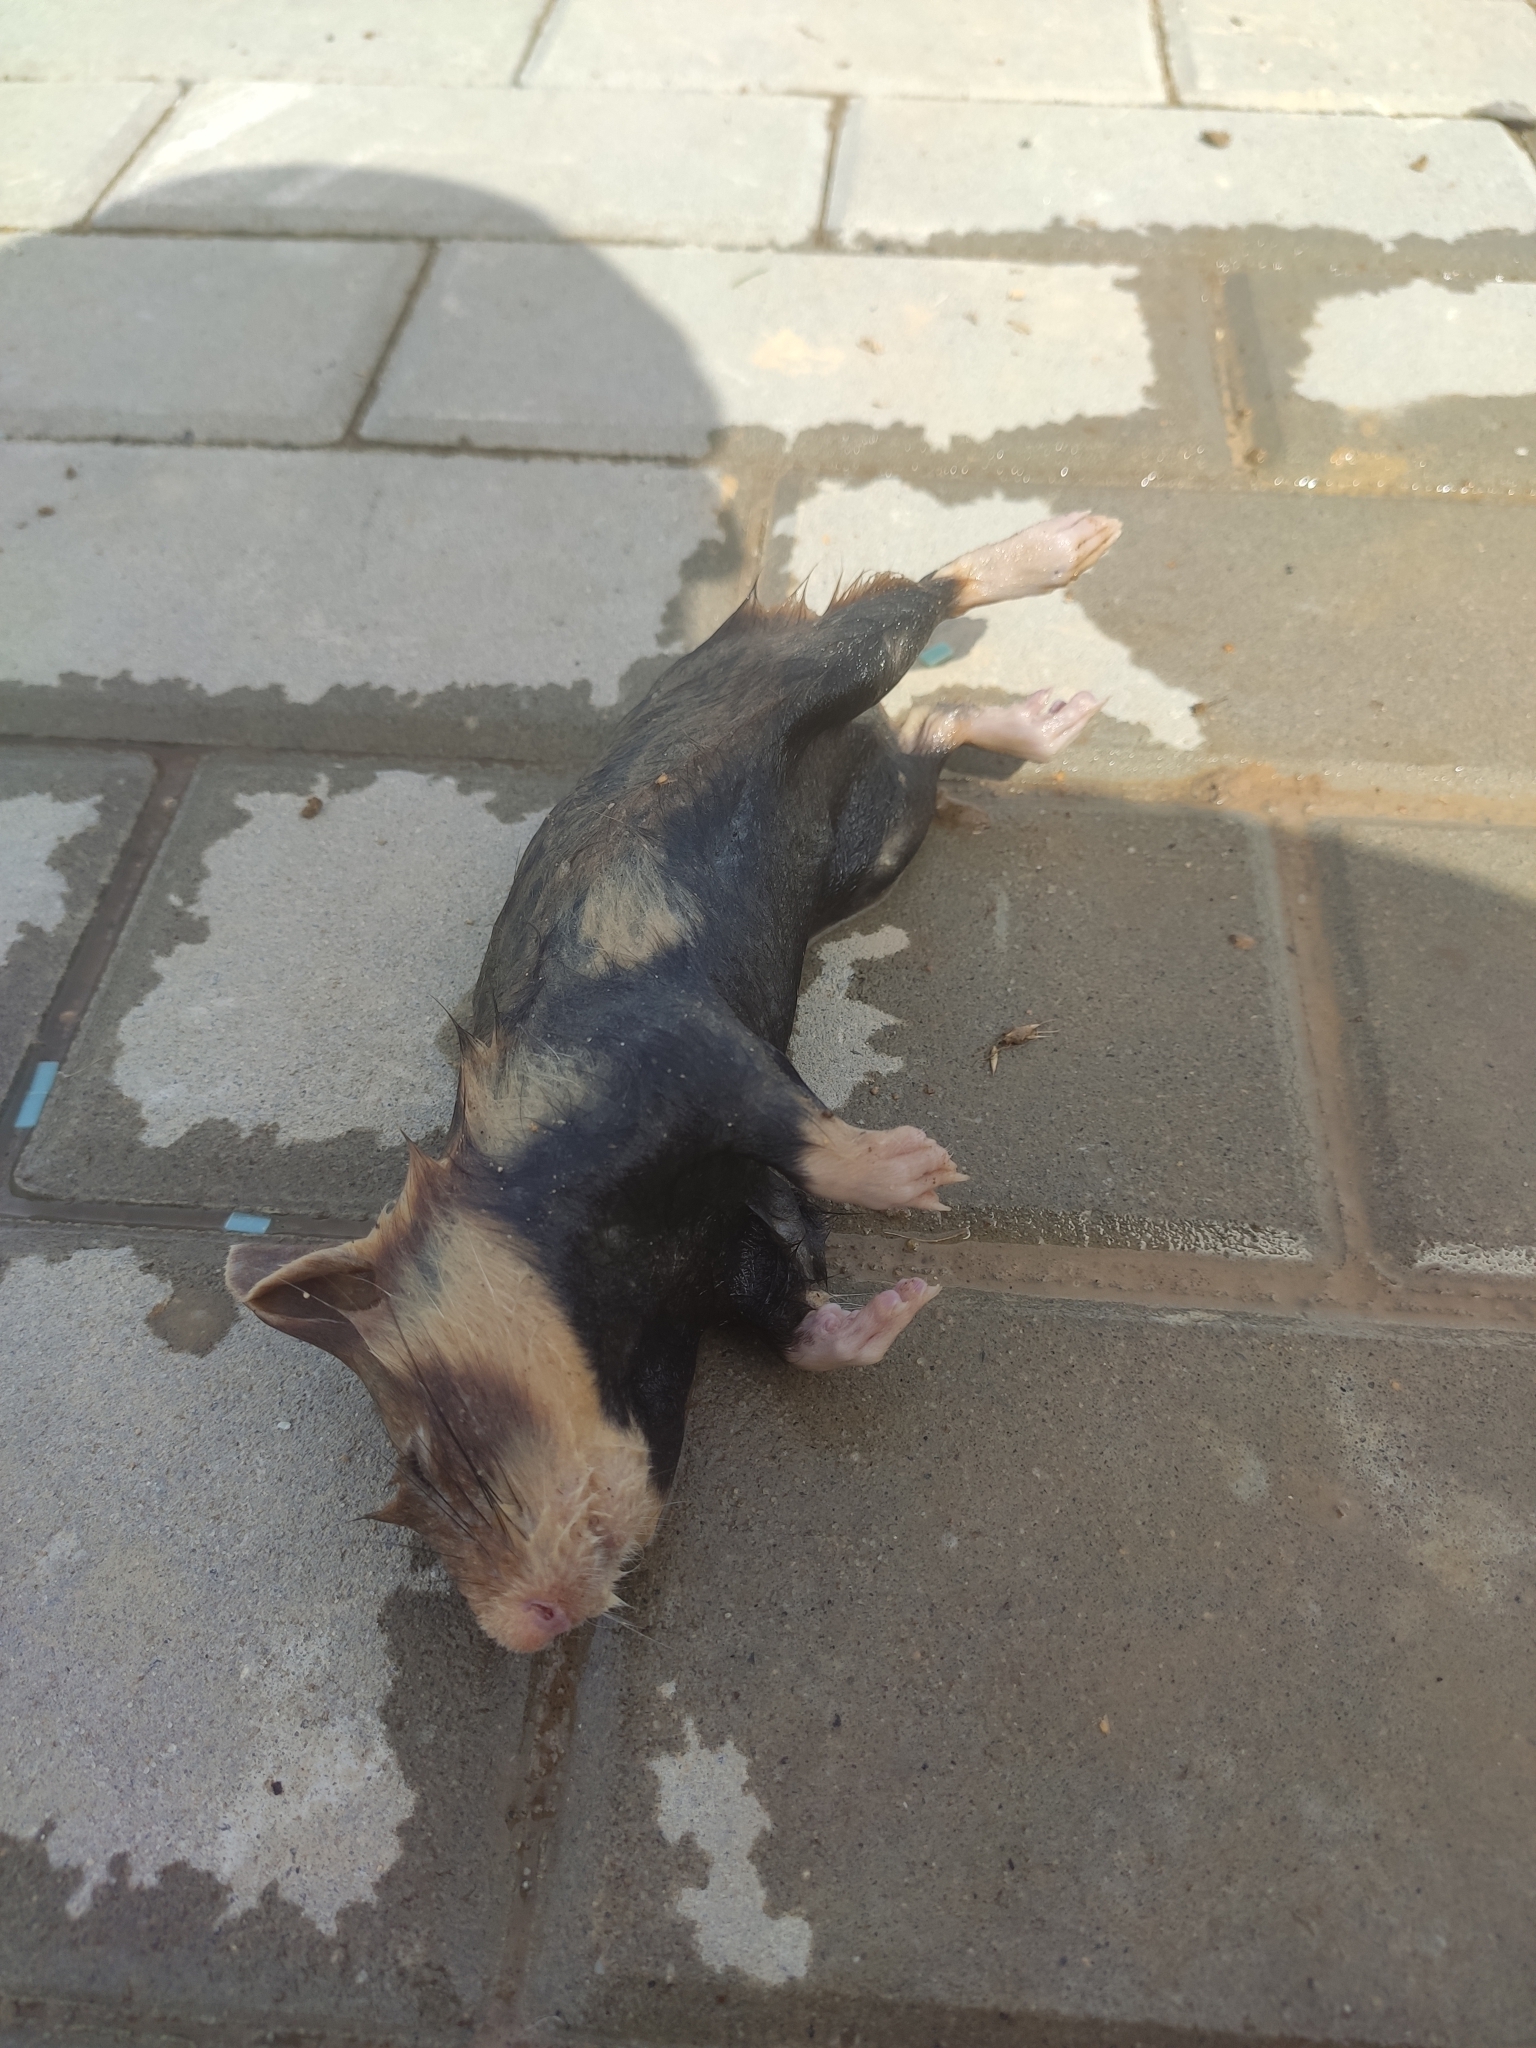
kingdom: Animalia
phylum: Chordata
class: Mammalia
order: Rodentia
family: Cricetidae
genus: Cricetus
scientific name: Cricetus cricetus
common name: Common hamster
